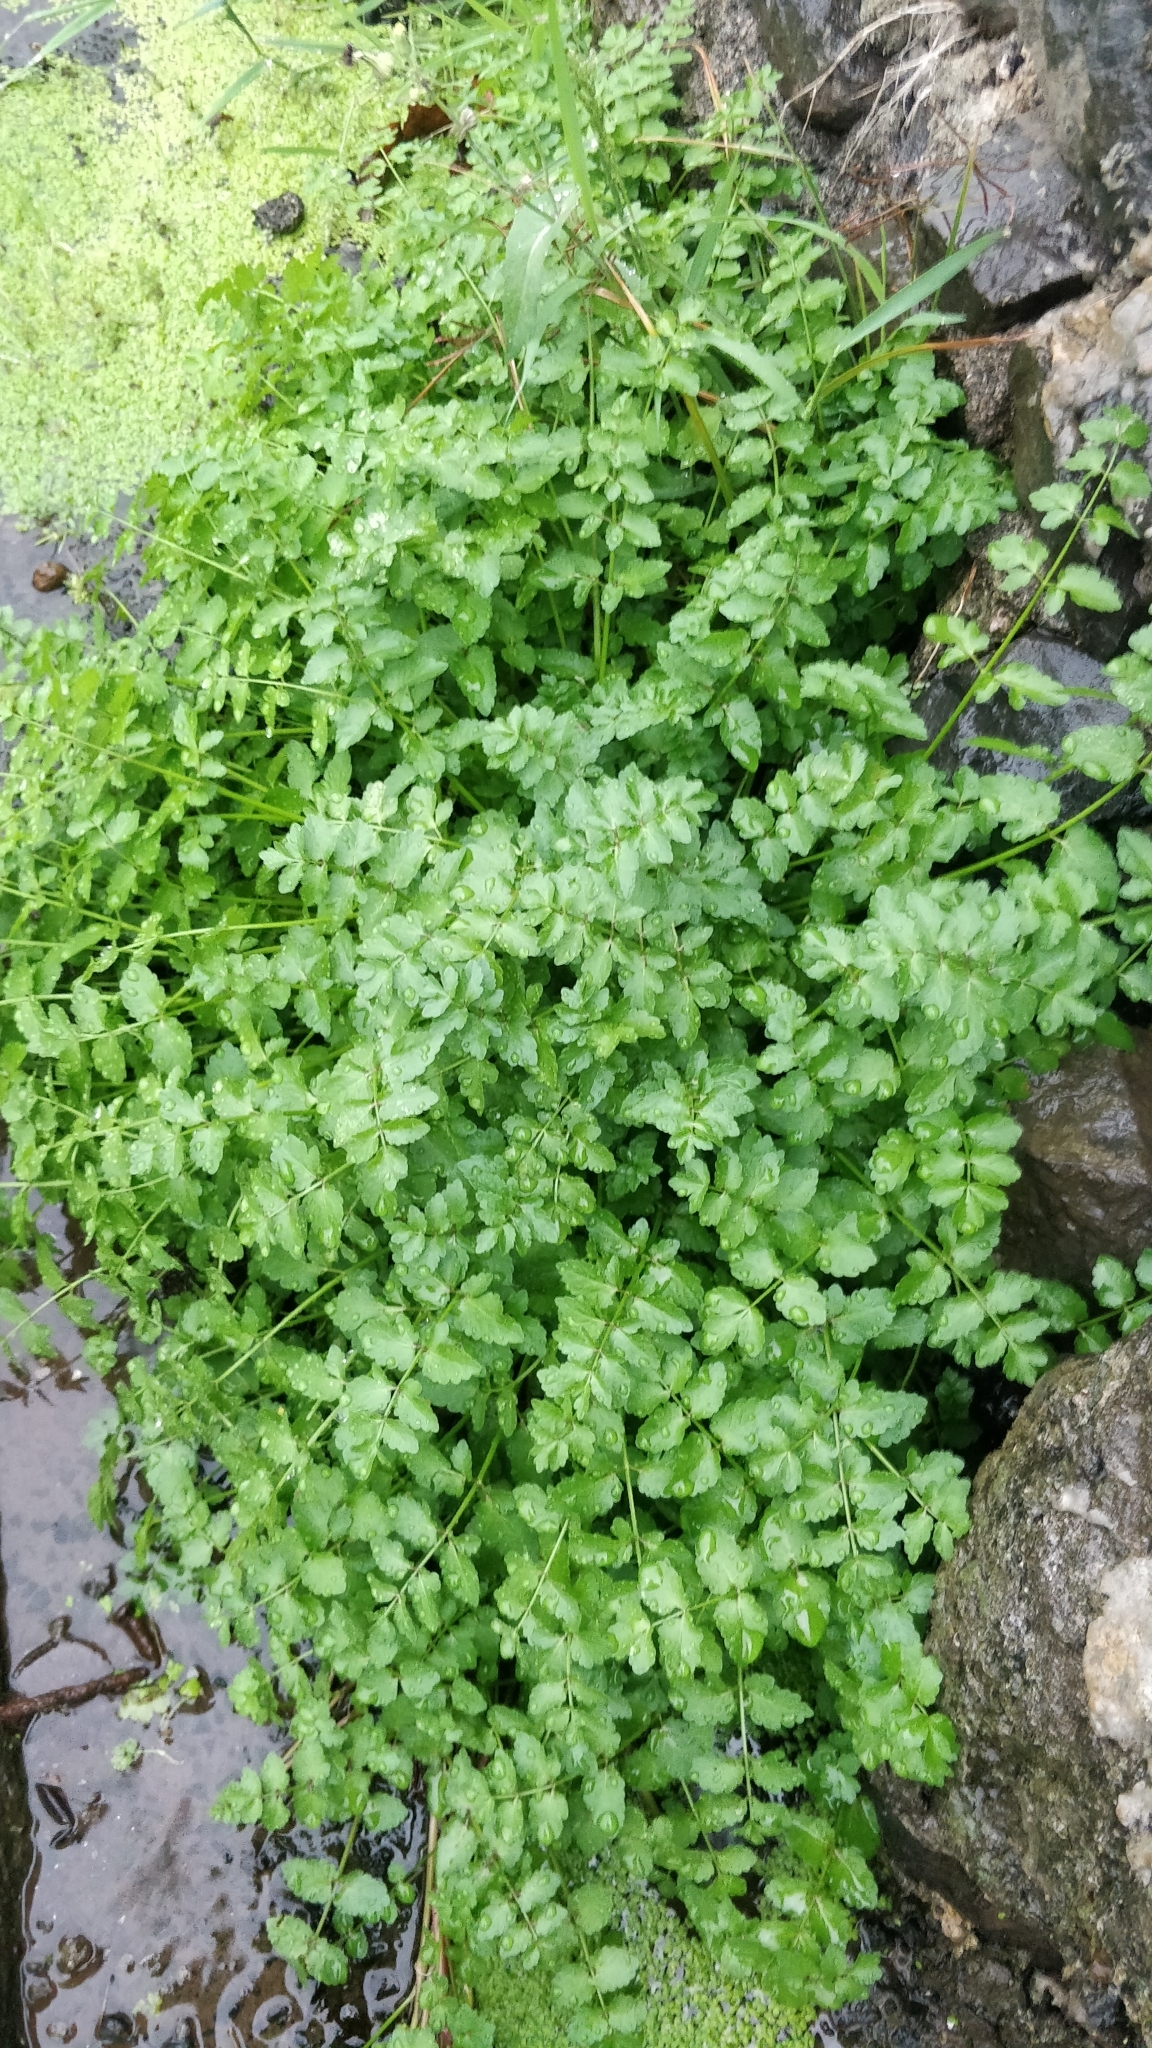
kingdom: Plantae
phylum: Tracheophyta
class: Magnoliopsida
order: Apiales
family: Apiaceae
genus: Helosciadium
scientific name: Helosciadium nodiflorum
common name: Fool's-watercress
